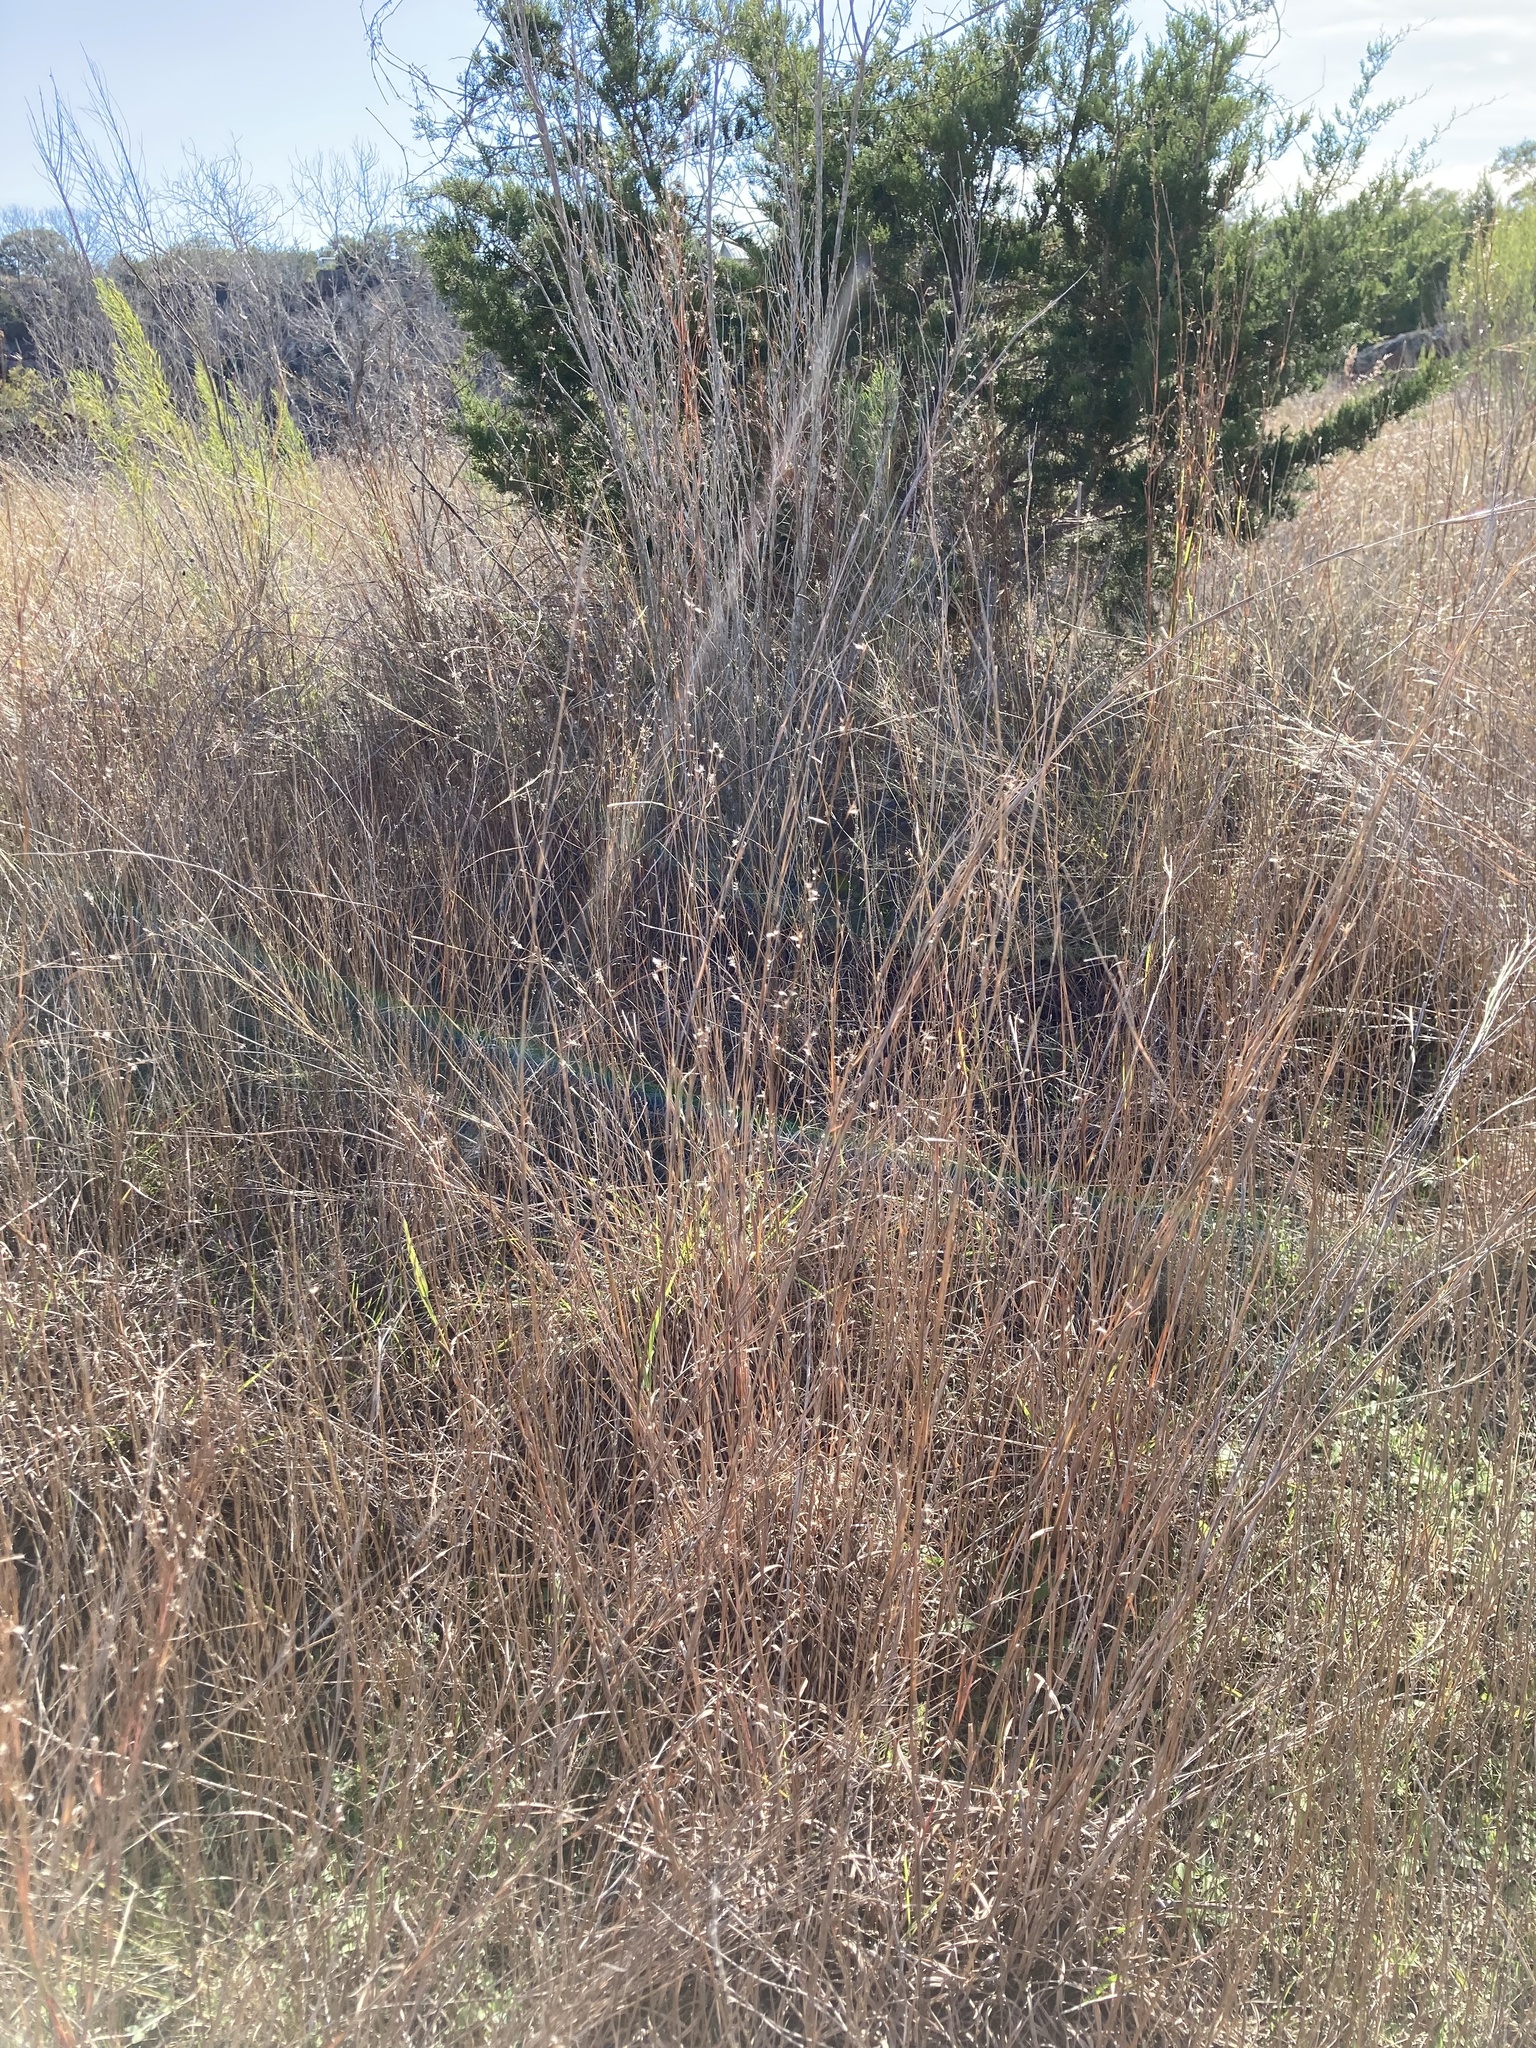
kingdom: Plantae
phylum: Tracheophyta
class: Liliopsida
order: Poales
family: Poaceae
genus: Schizachyrium
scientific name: Schizachyrium scoparium
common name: Little bluestem
